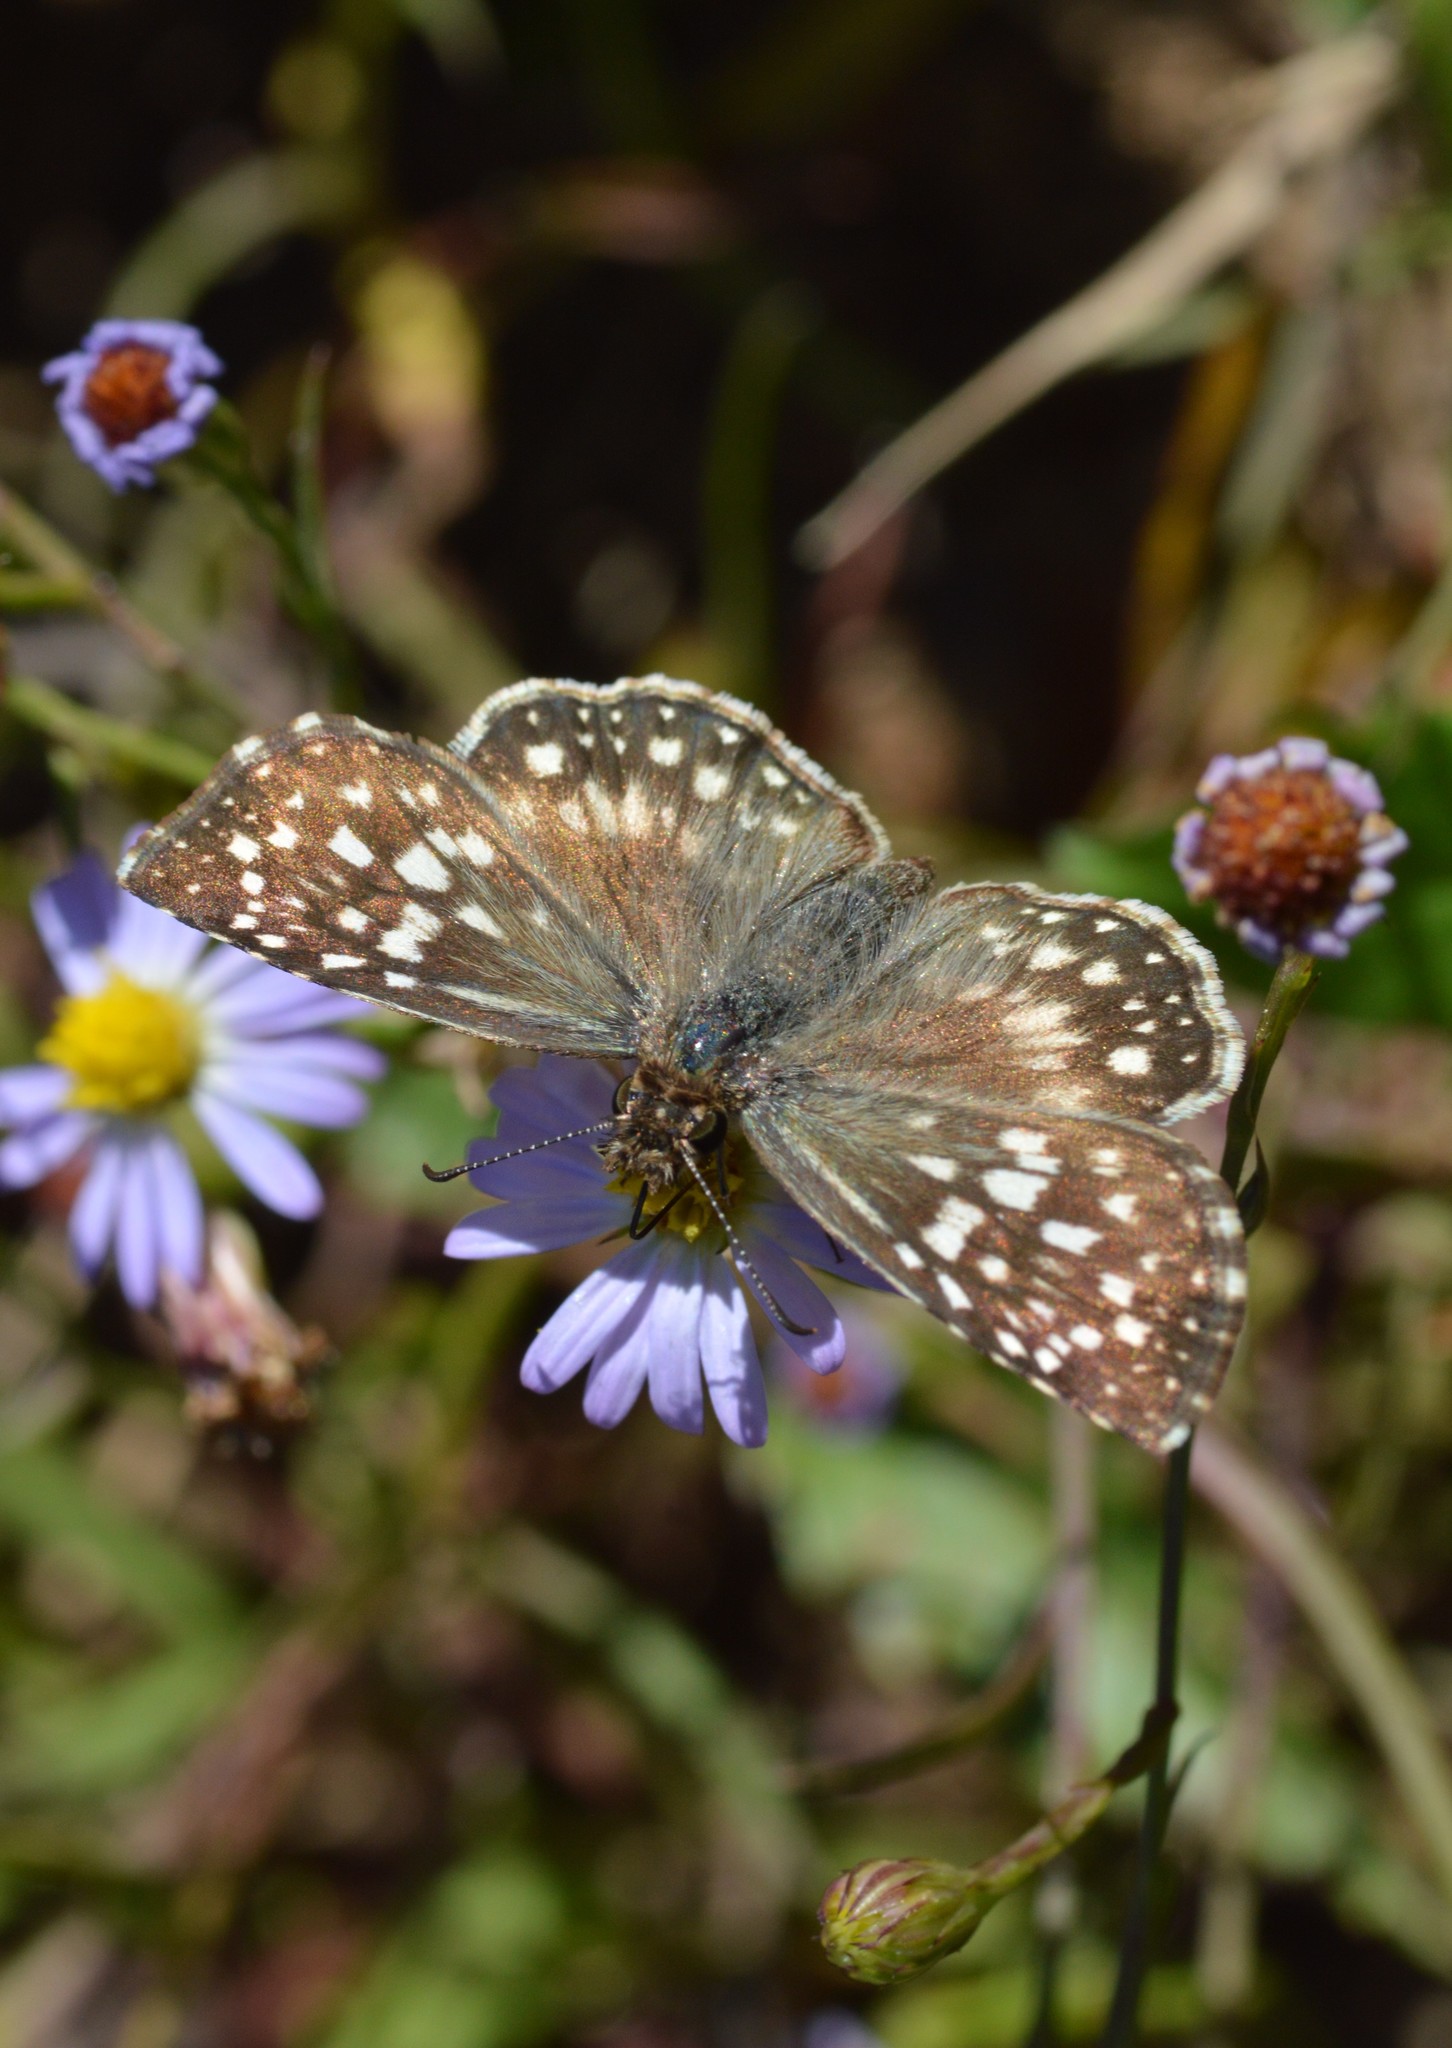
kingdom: Animalia
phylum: Arthropoda
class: Insecta
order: Lepidoptera
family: Hesperiidae
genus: Pyrgus
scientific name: Pyrgus oileus
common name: Tropical checkered-skipper
